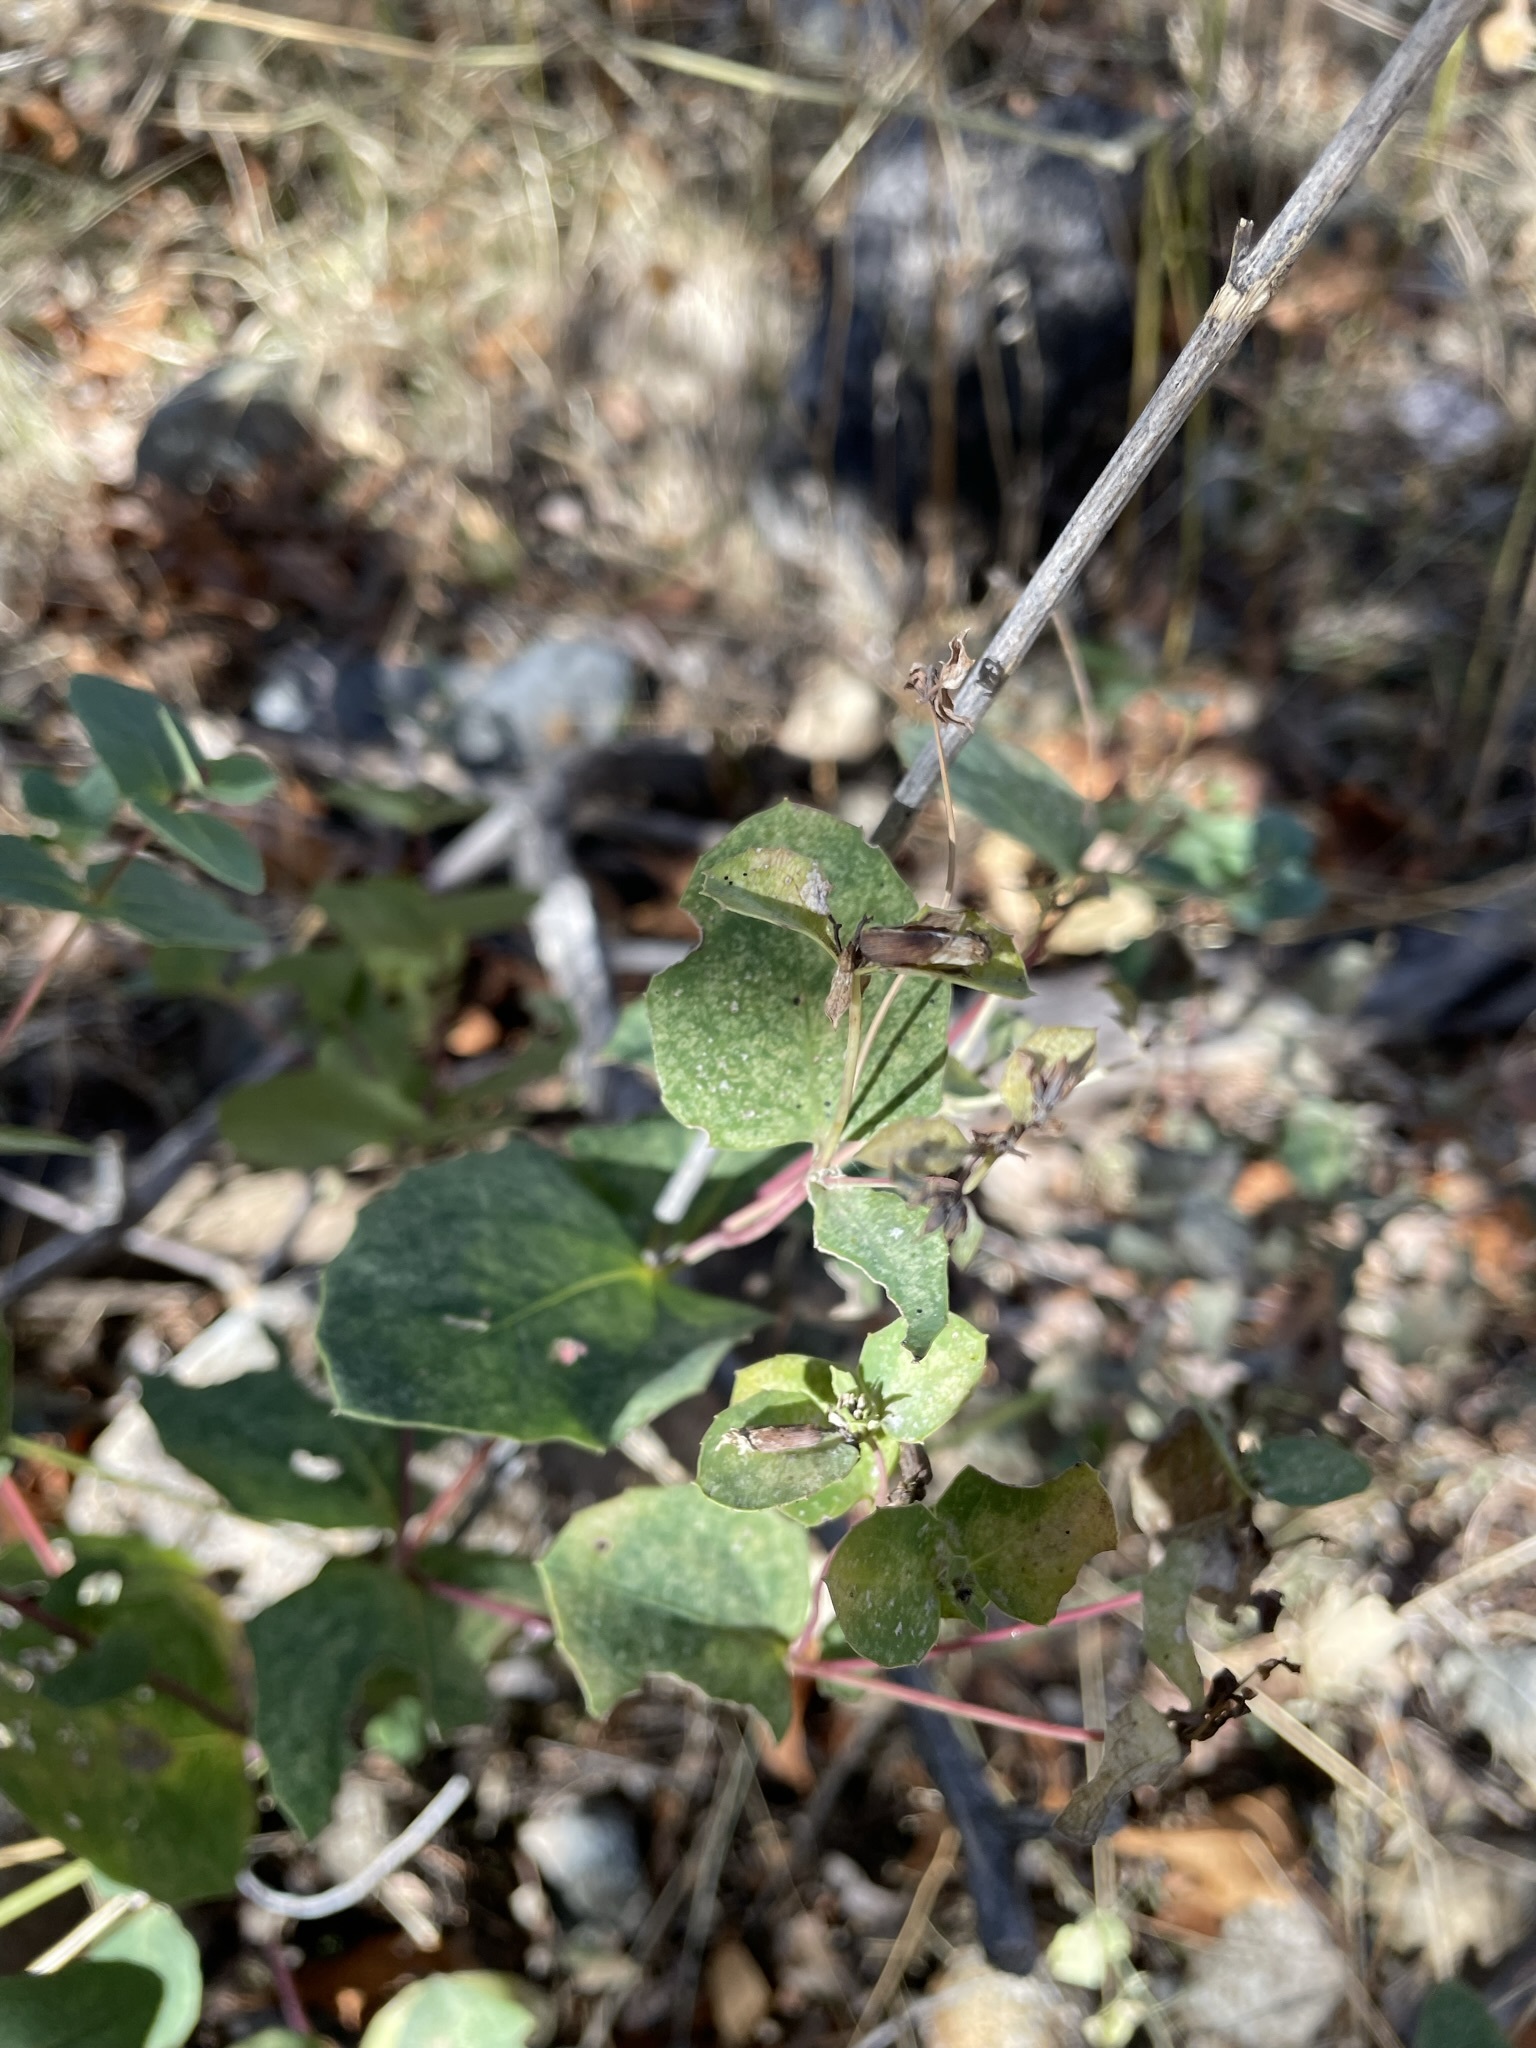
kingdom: Plantae
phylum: Tracheophyta
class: Magnoliopsida
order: Asterales
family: Asteraceae
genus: Guardiola
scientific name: Guardiola platyphylla
